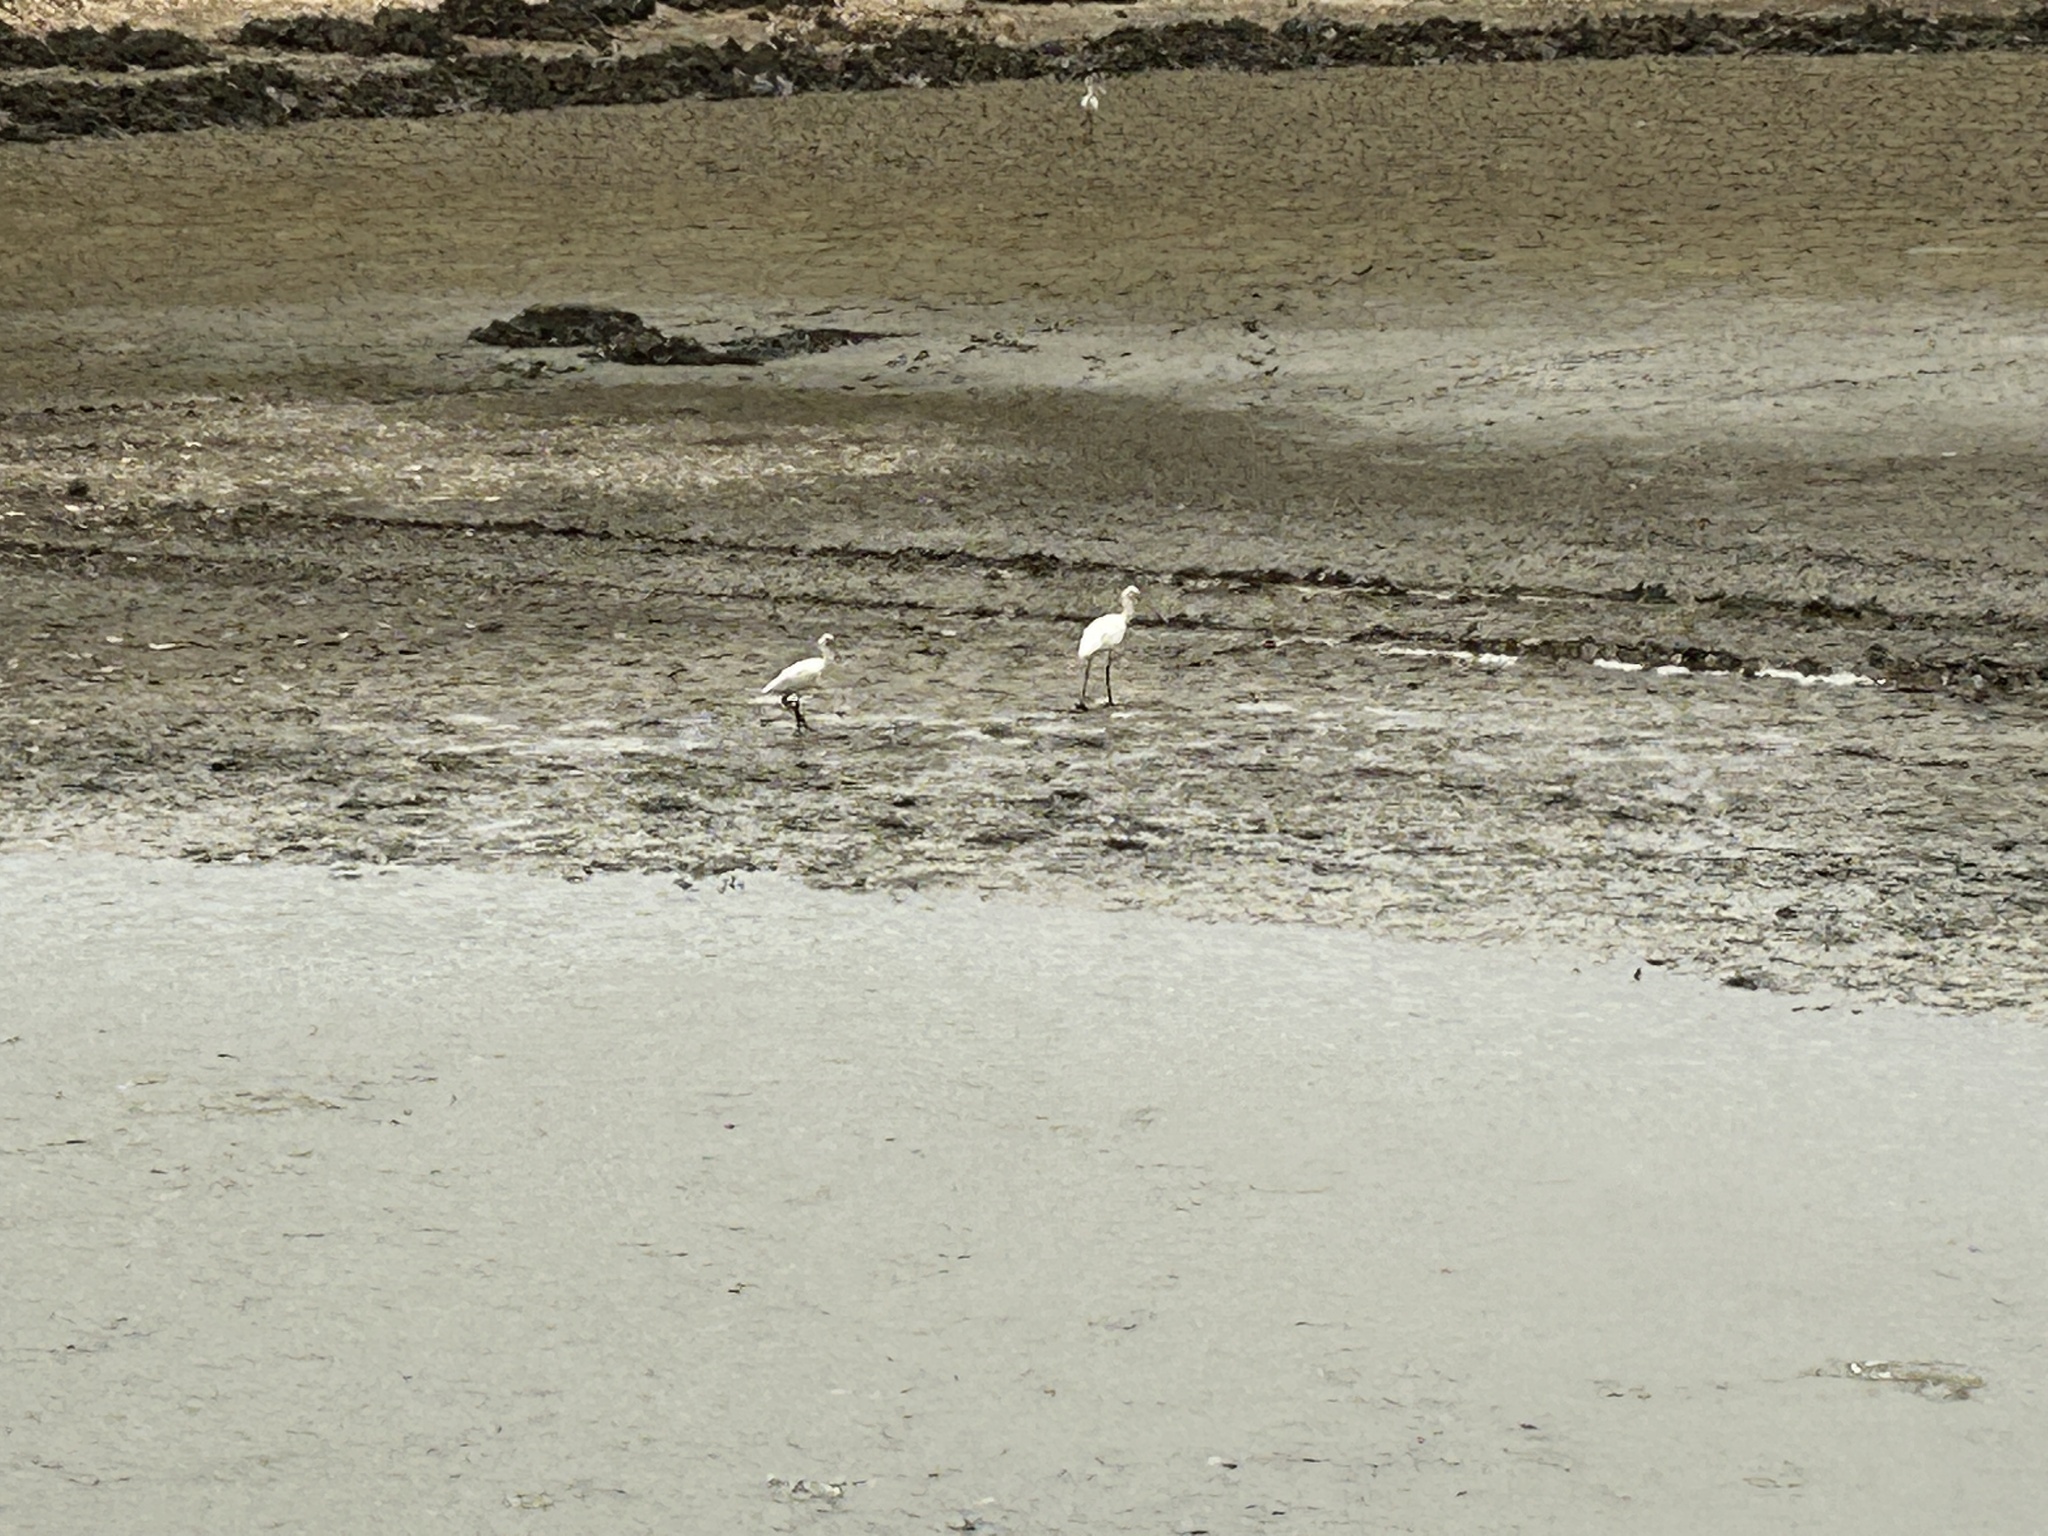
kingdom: Animalia
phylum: Chordata
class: Aves
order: Pelecaniformes
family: Threskiornithidae
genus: Platalea
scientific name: Platalea minor
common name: Black-faced spoonbill
